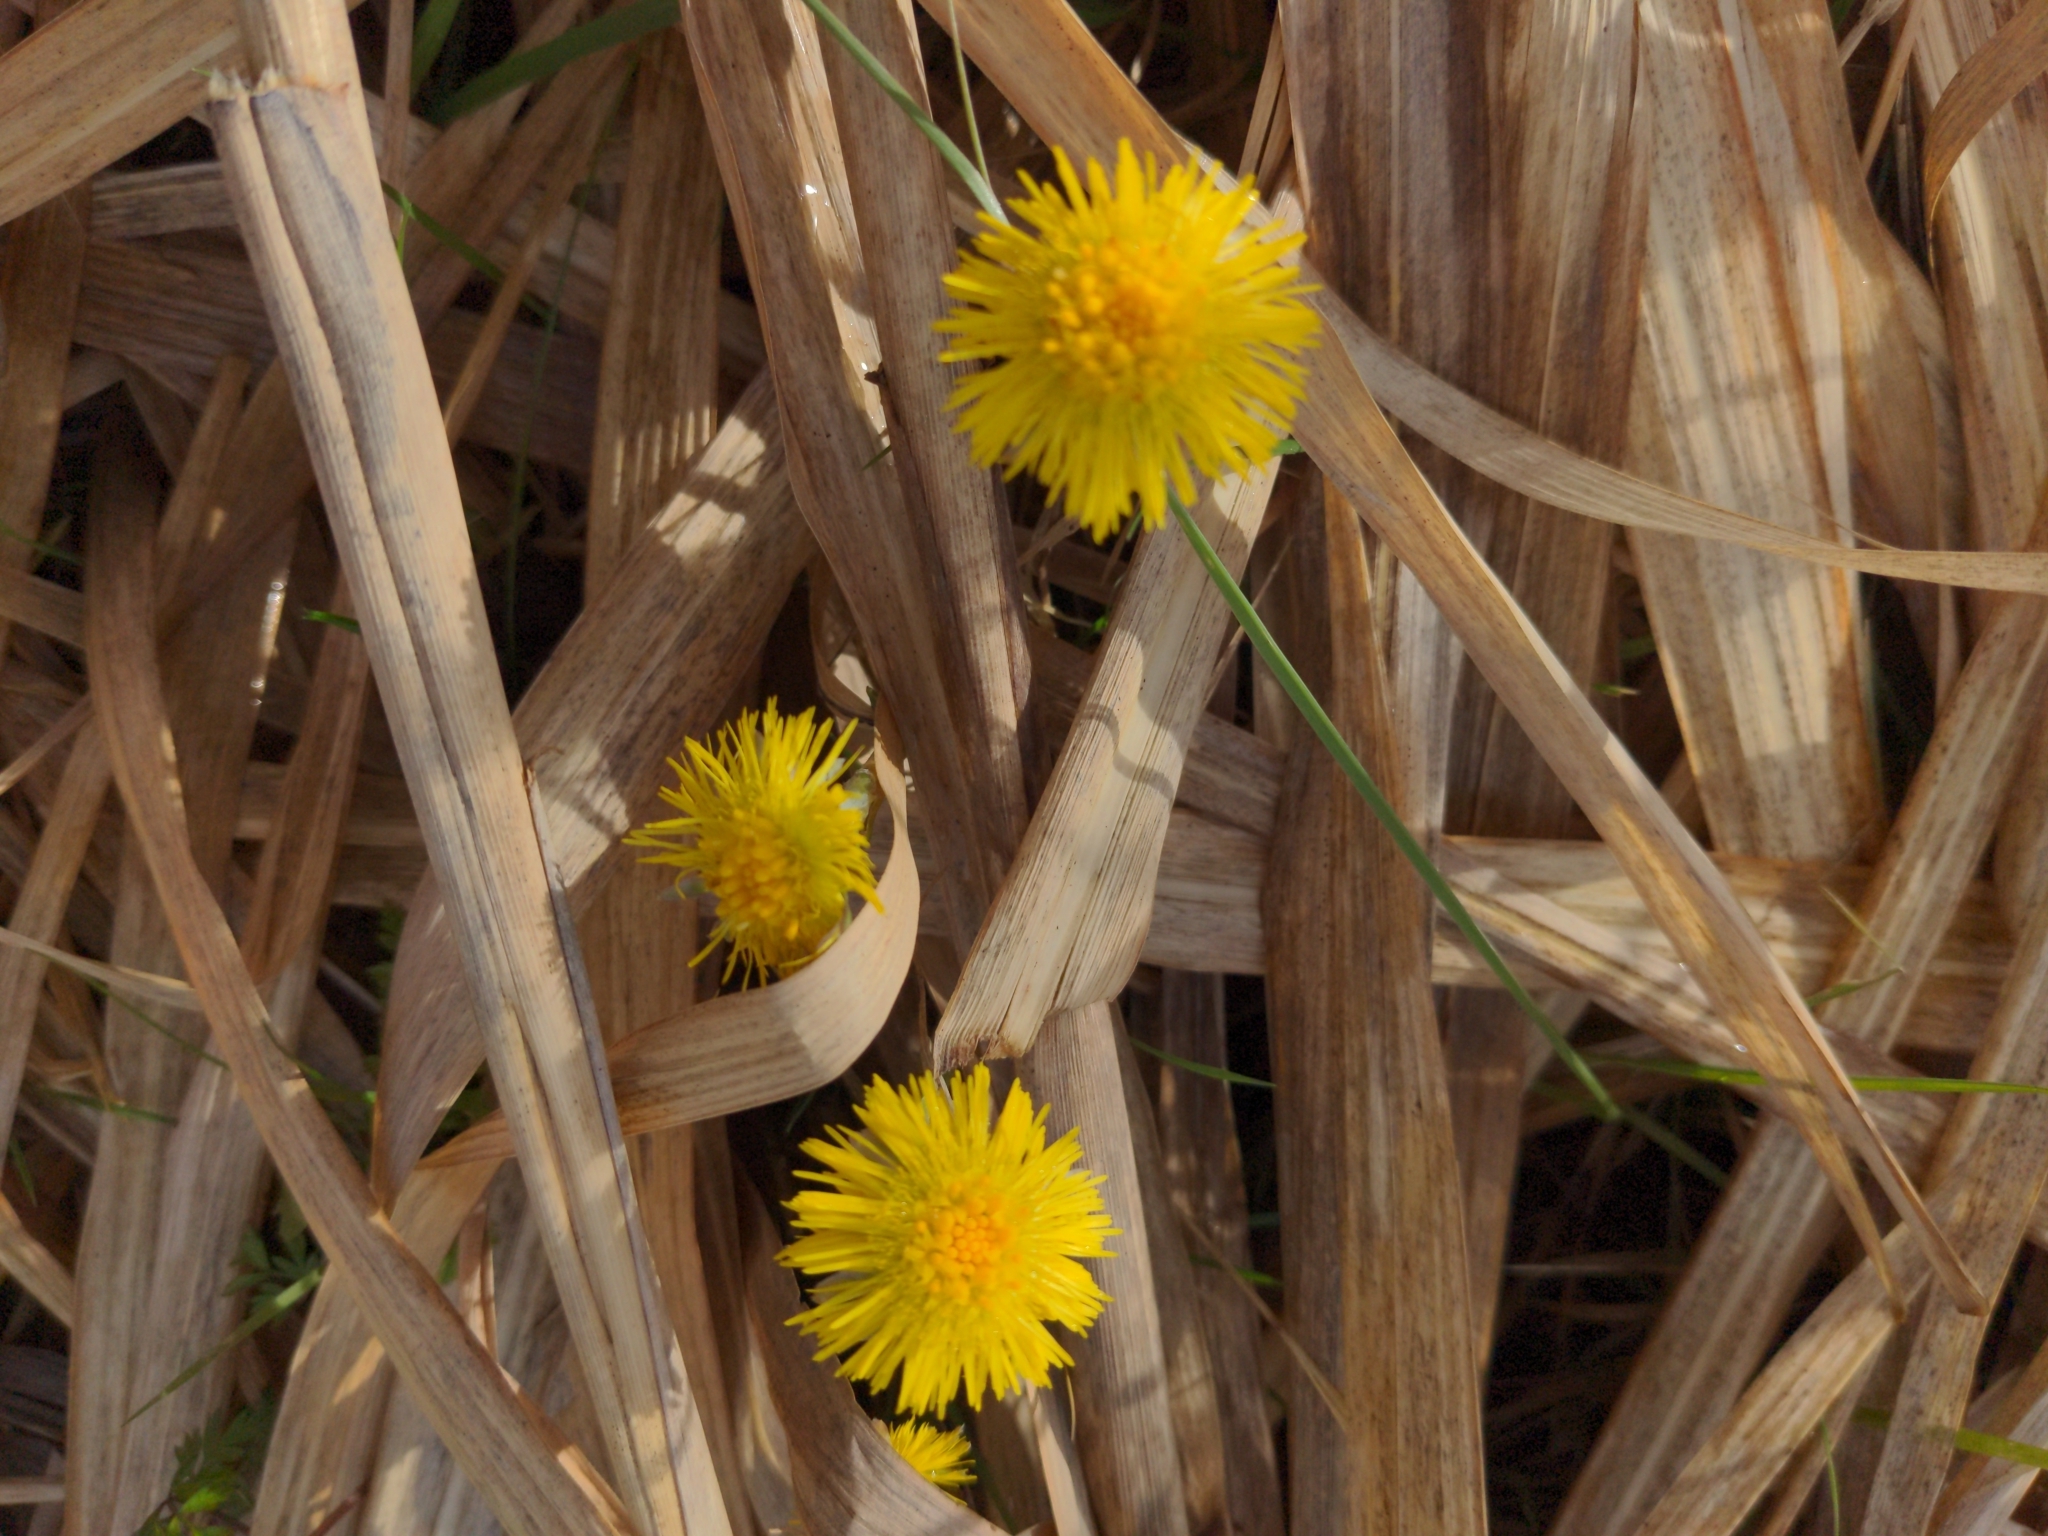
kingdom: Plantae
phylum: Tracheophyta
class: Magnoliopsida
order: Asterales
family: Asteraceae
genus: Tussilago
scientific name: Tussilago farfara
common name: Coltsfoot
